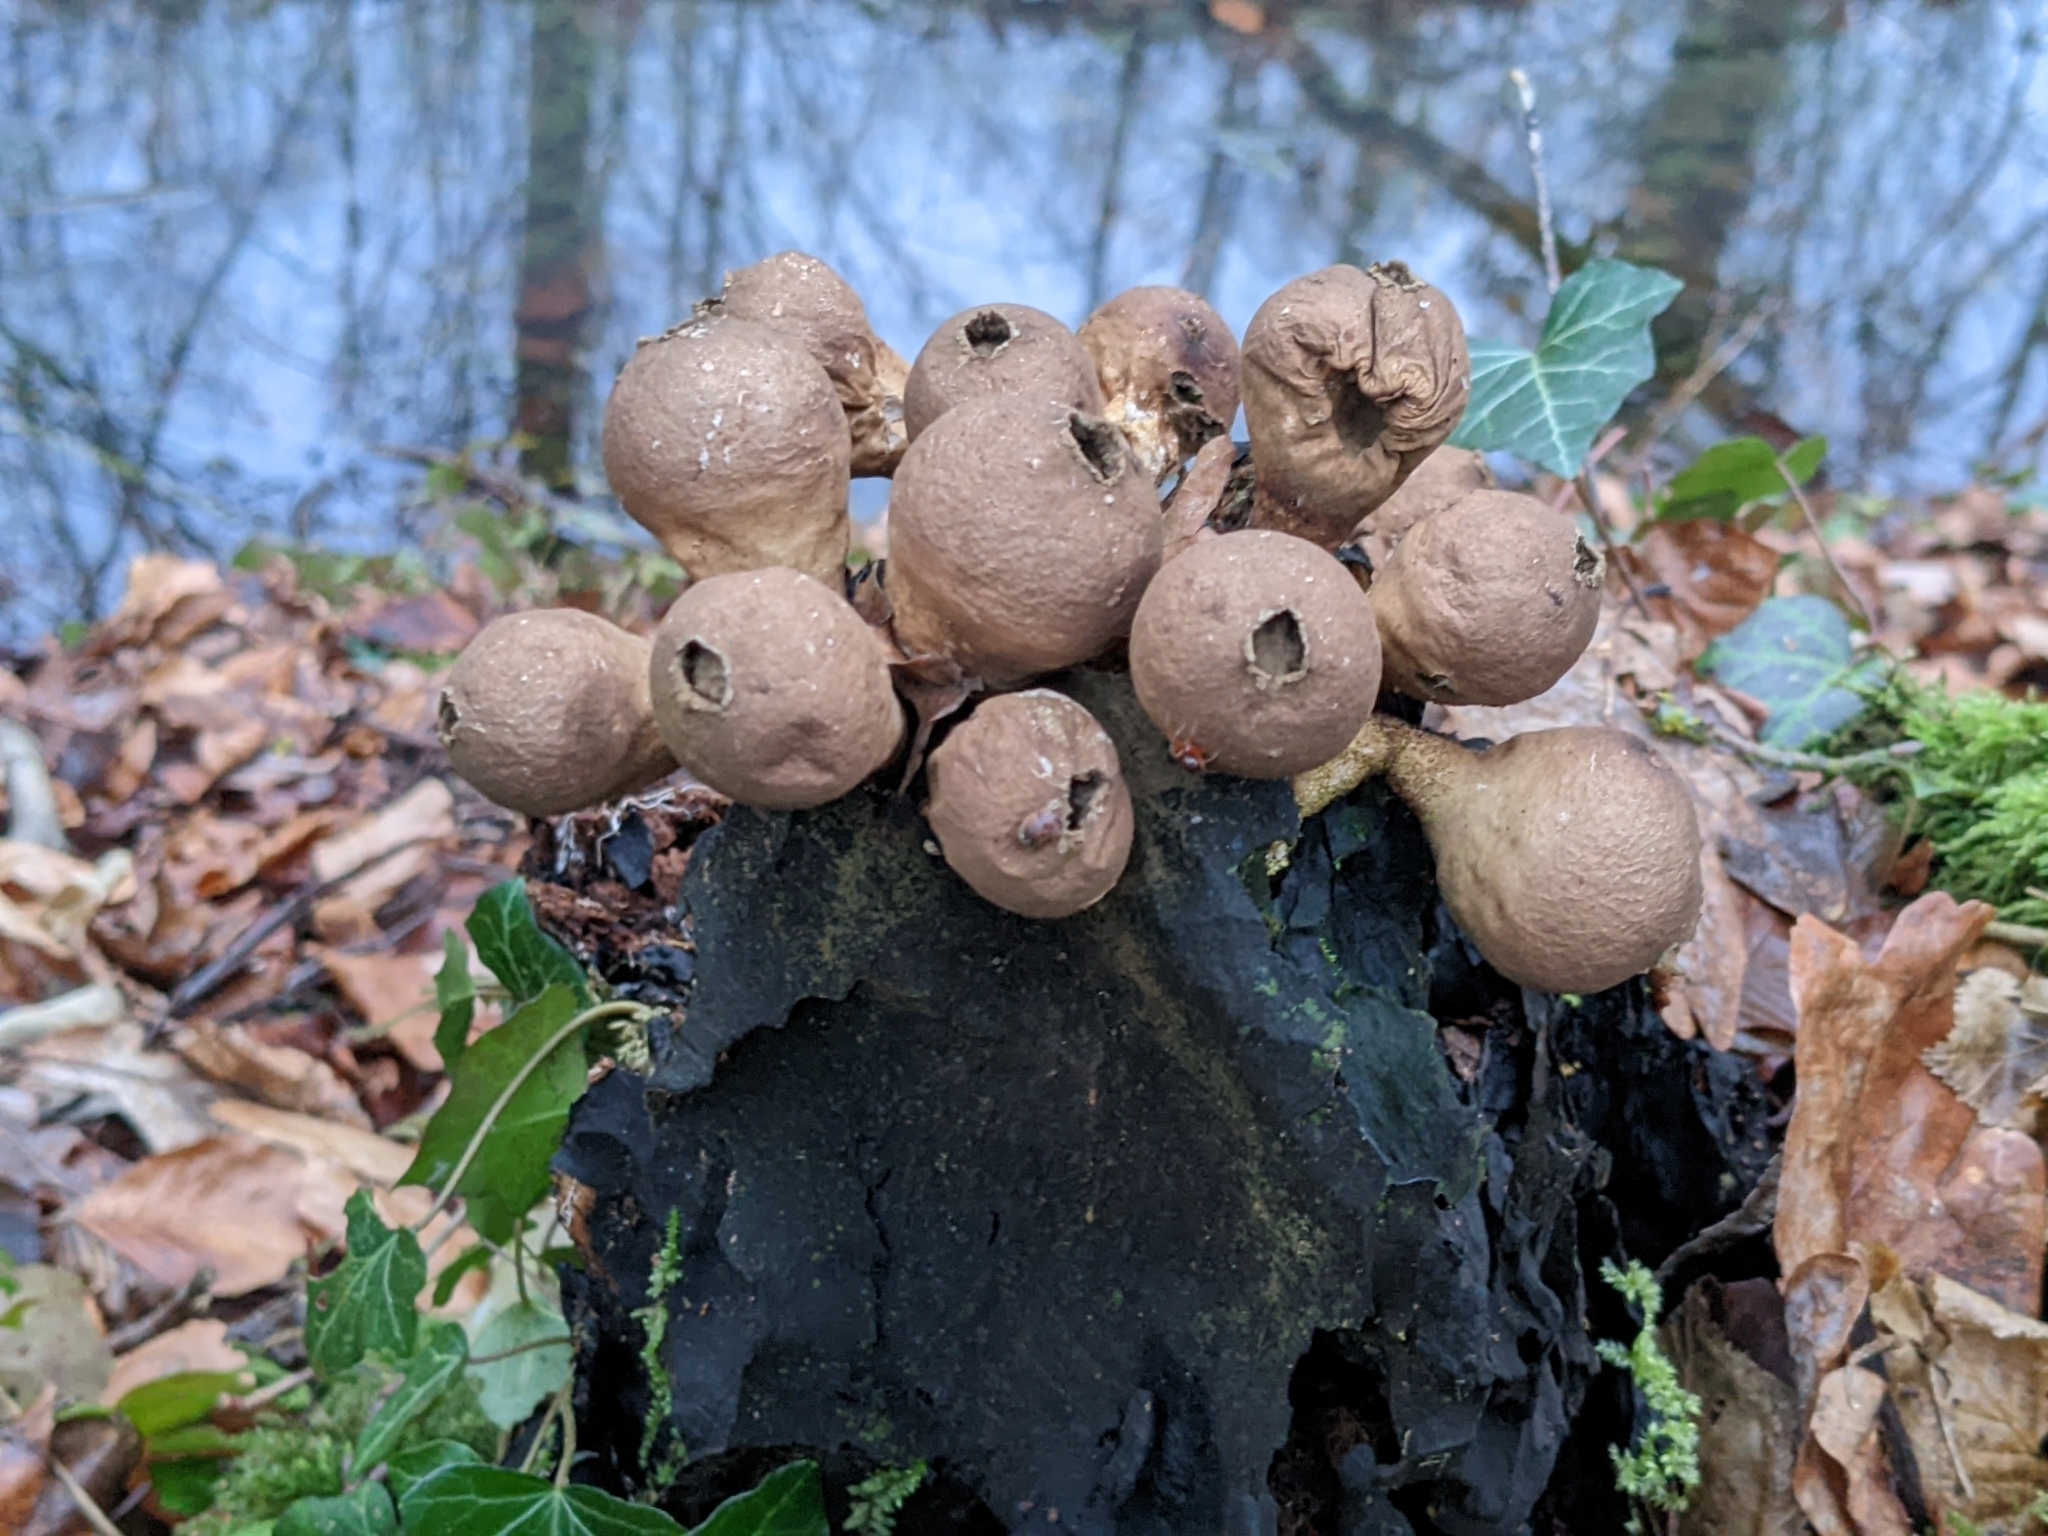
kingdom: Fungi
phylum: Basidiomycota
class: Agaricomycetes
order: Agaricales
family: Lycoperdaceae
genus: Apioperdon
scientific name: Apioperdon pyriforme
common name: Pear-shaped puffball
